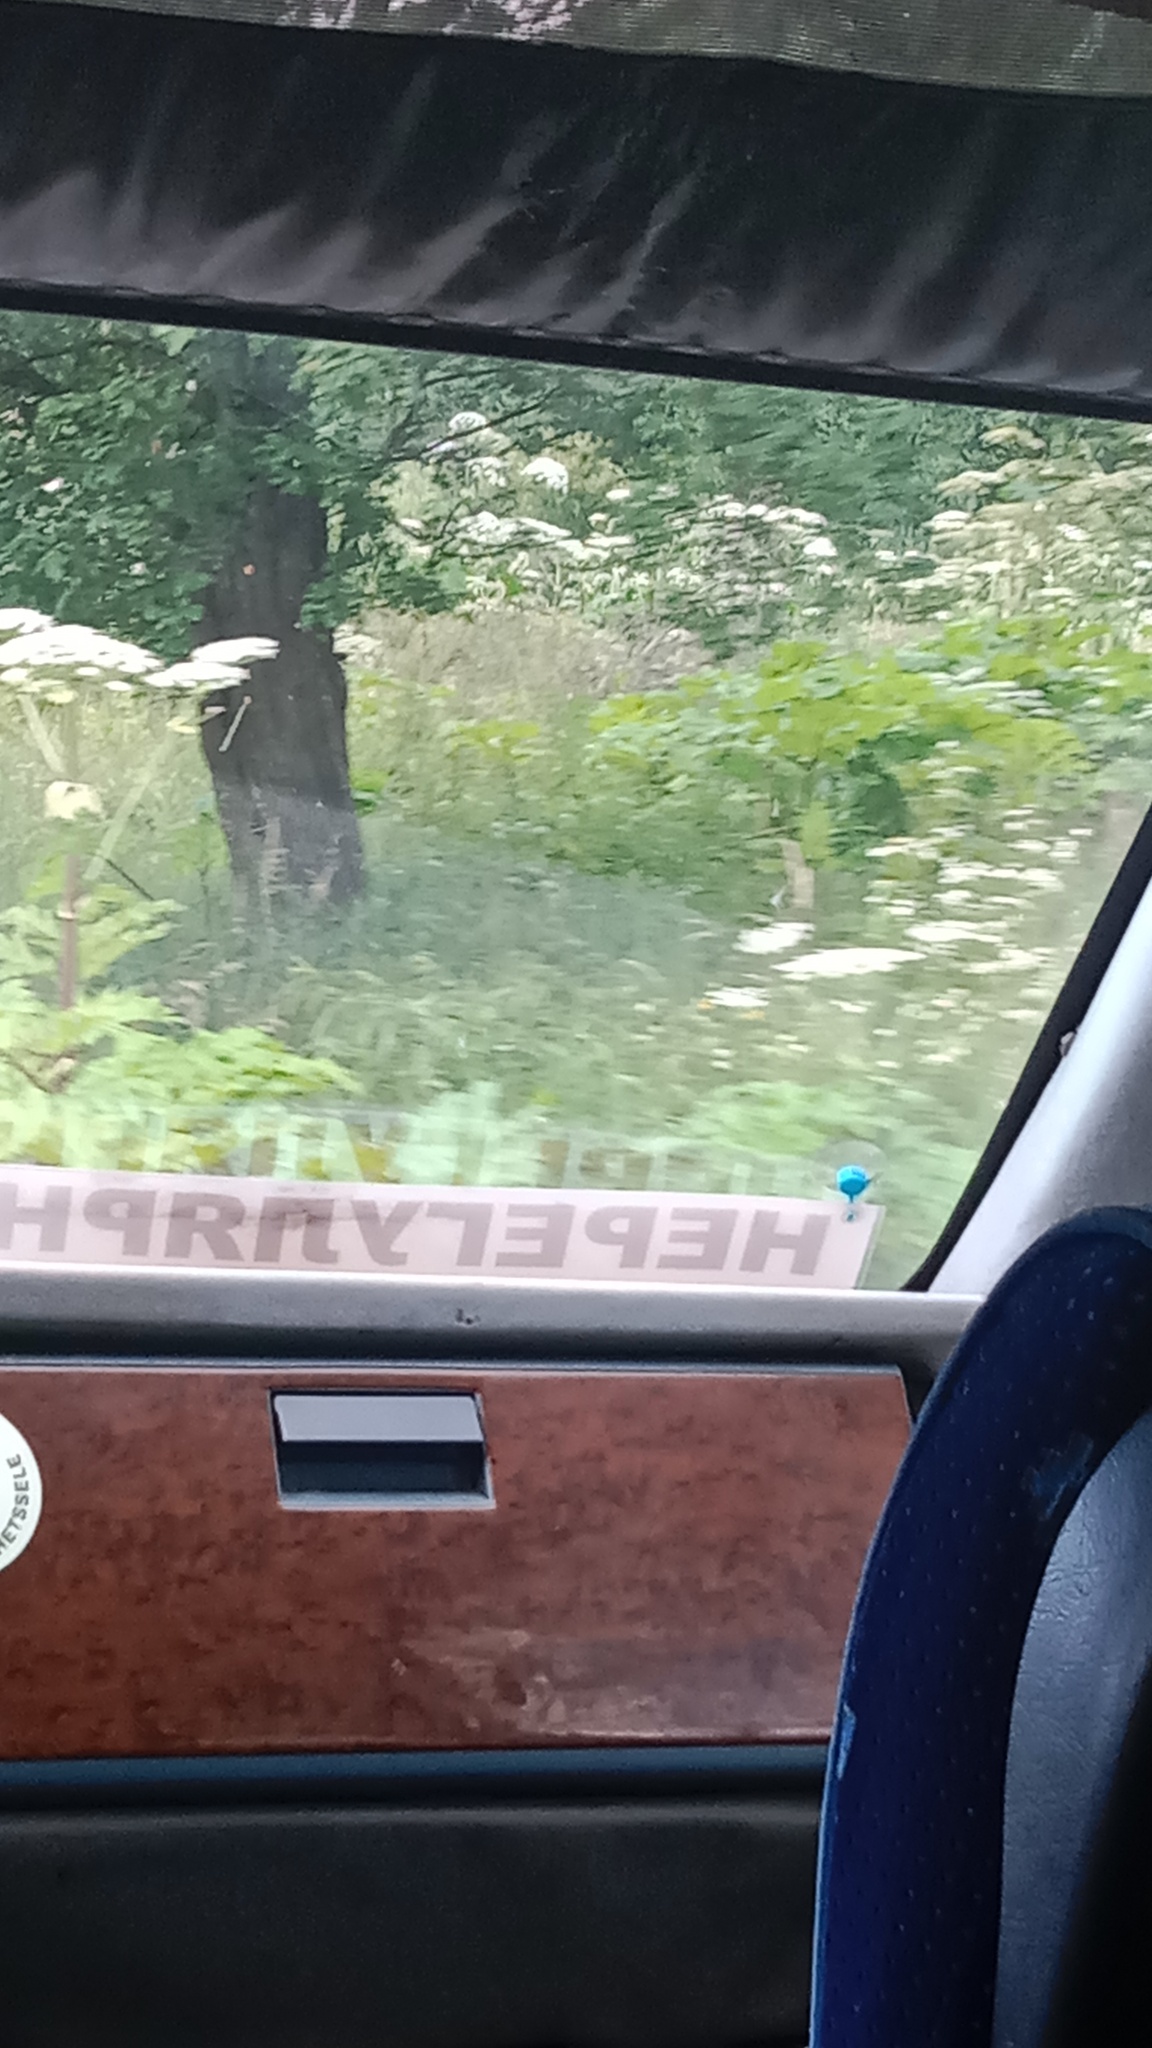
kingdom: Plantae
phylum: Tracheophyta
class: Magnoliopsida
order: Apiales
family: Apiaceae
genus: Heracleum
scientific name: Heracleum sosnowskyi
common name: Sosnowsky's hogweed
